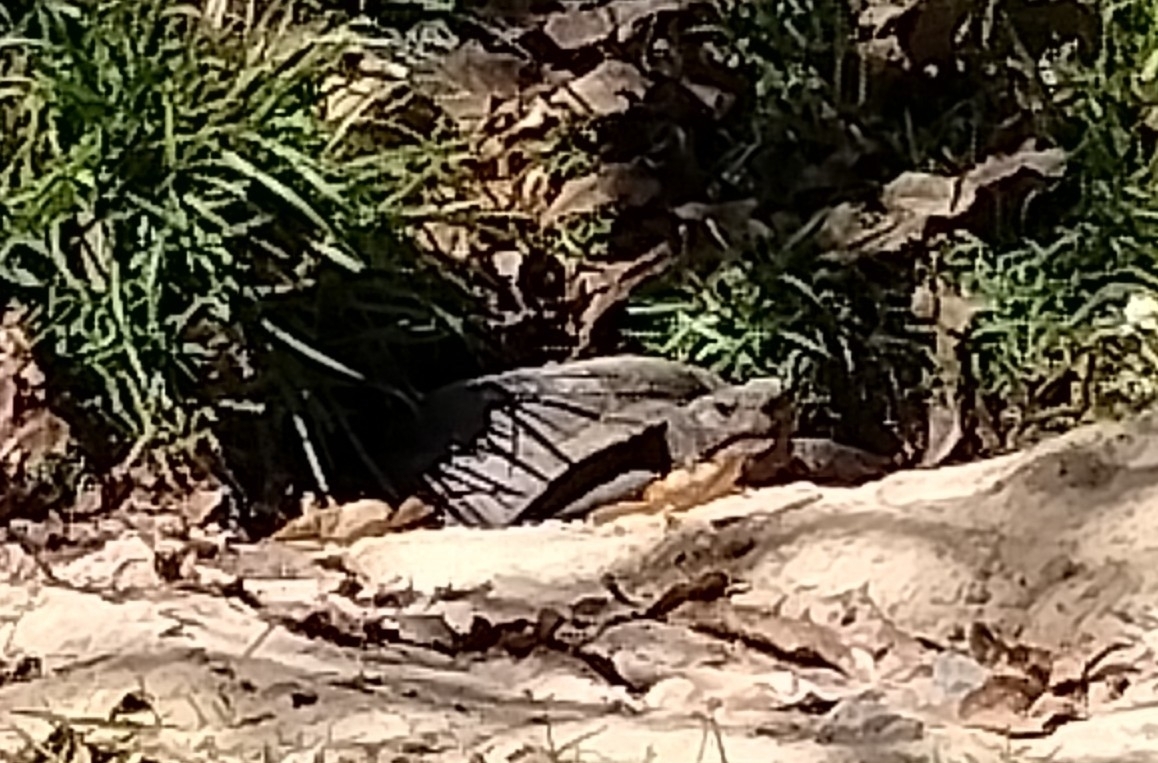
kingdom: Animalia
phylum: Chordata
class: Testudines
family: Testudinidae
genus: Gopherus
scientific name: Gopherus polyphemus
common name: Florida gopher tortoise
